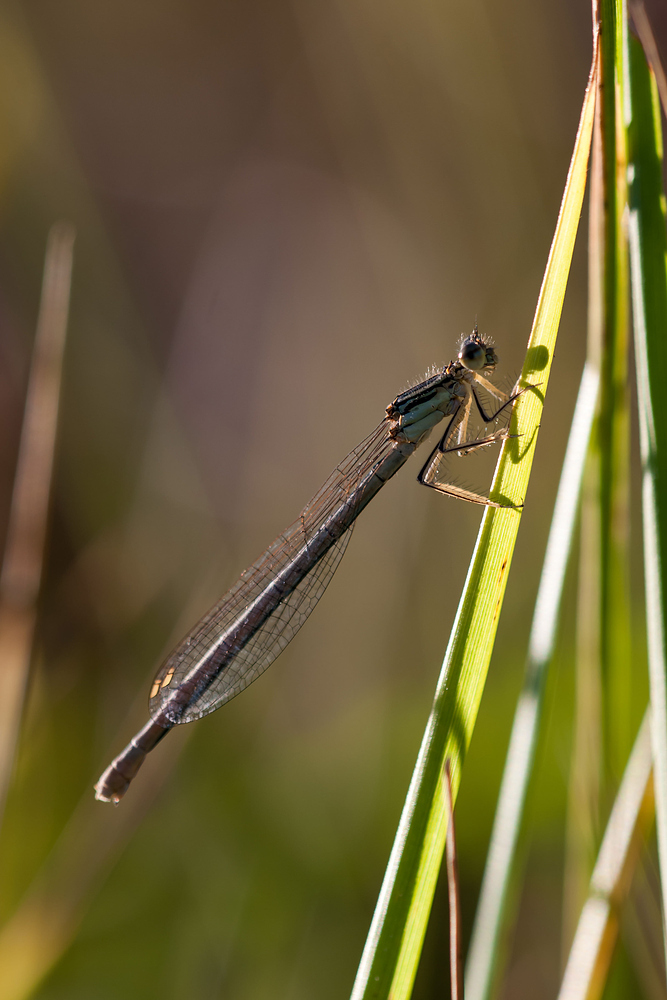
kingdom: Animalia
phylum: Arthropoda
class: Insecta
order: Odonata
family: Platycnemididae
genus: Platycnemis
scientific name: Platycnemis pennipes
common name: White-legged damselfly
